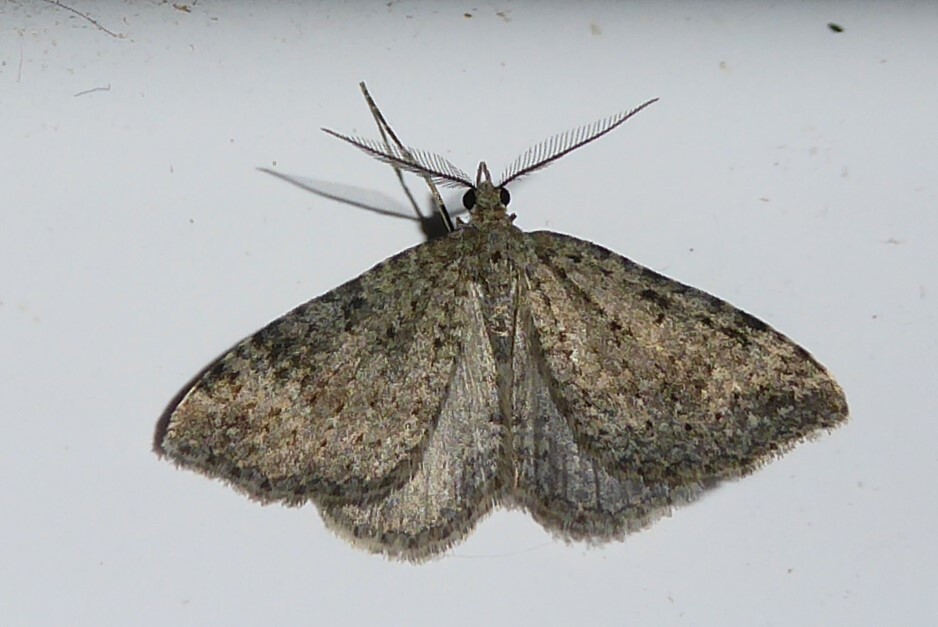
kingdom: Animalia
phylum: Arthropoda
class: Insecta
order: Lepidoptera
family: Geometridae
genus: Helastia
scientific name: Helastia corcularia
